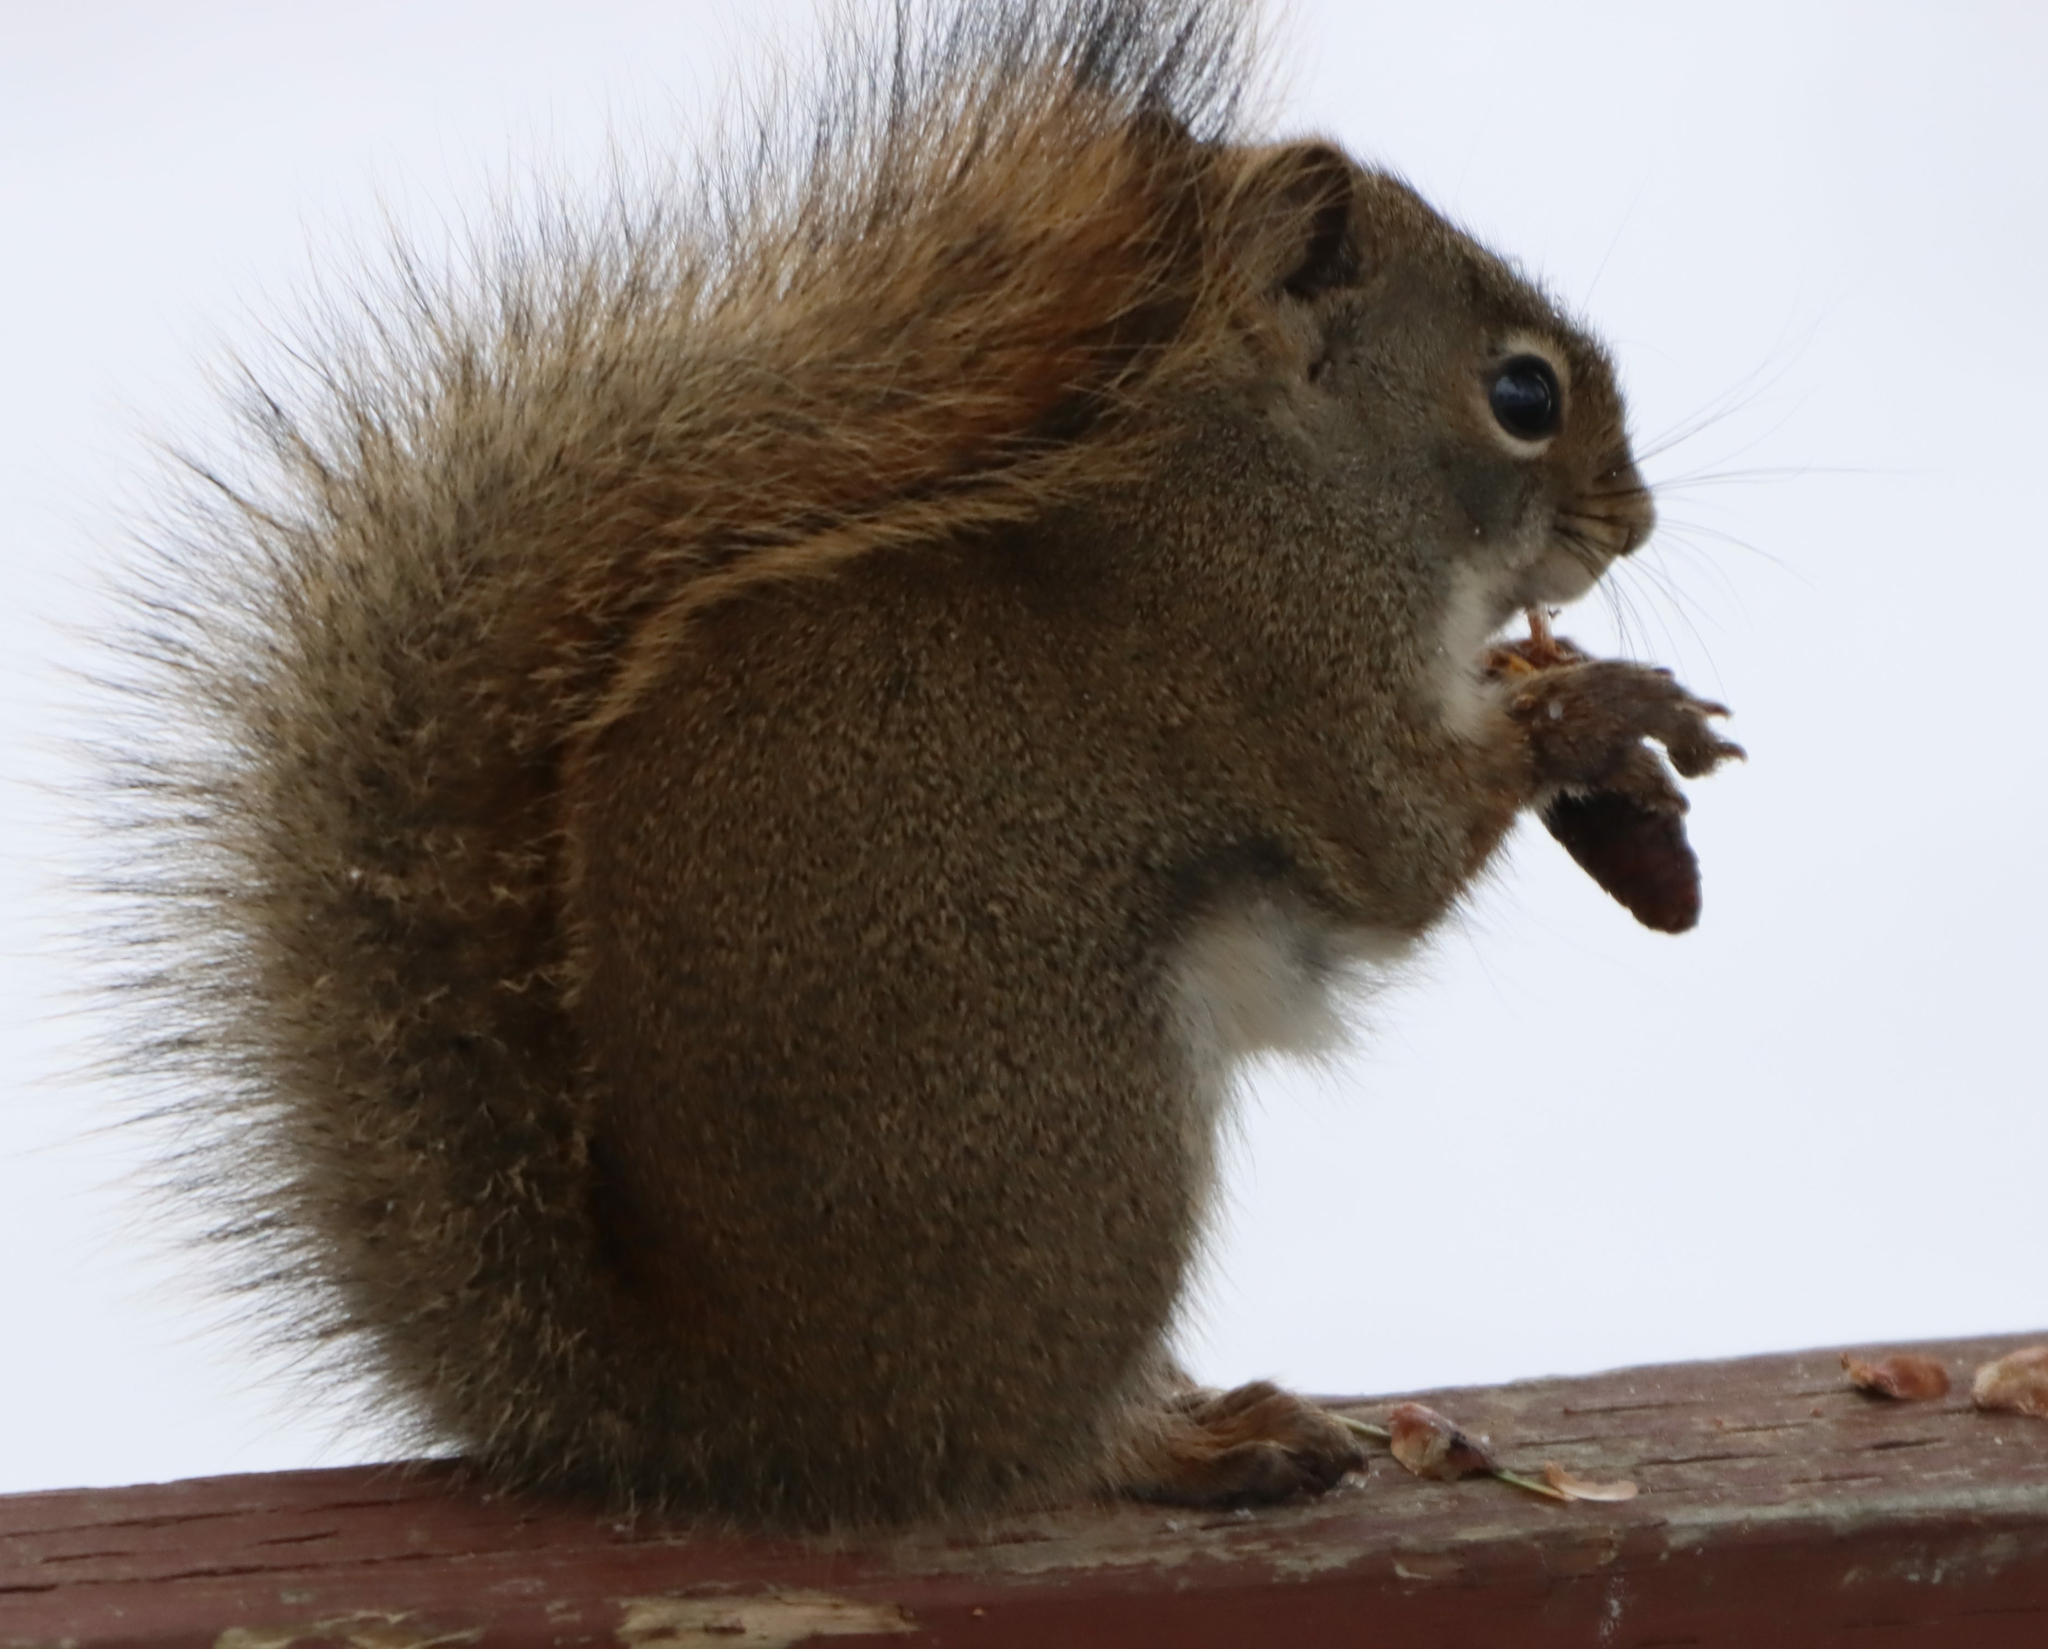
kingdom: Animalia
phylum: Chordata
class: Mammalia
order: Rodentia
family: Sciuridae
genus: Tamiasciurus
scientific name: Tamiasciurus hudsonicus
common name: Red squirrel
